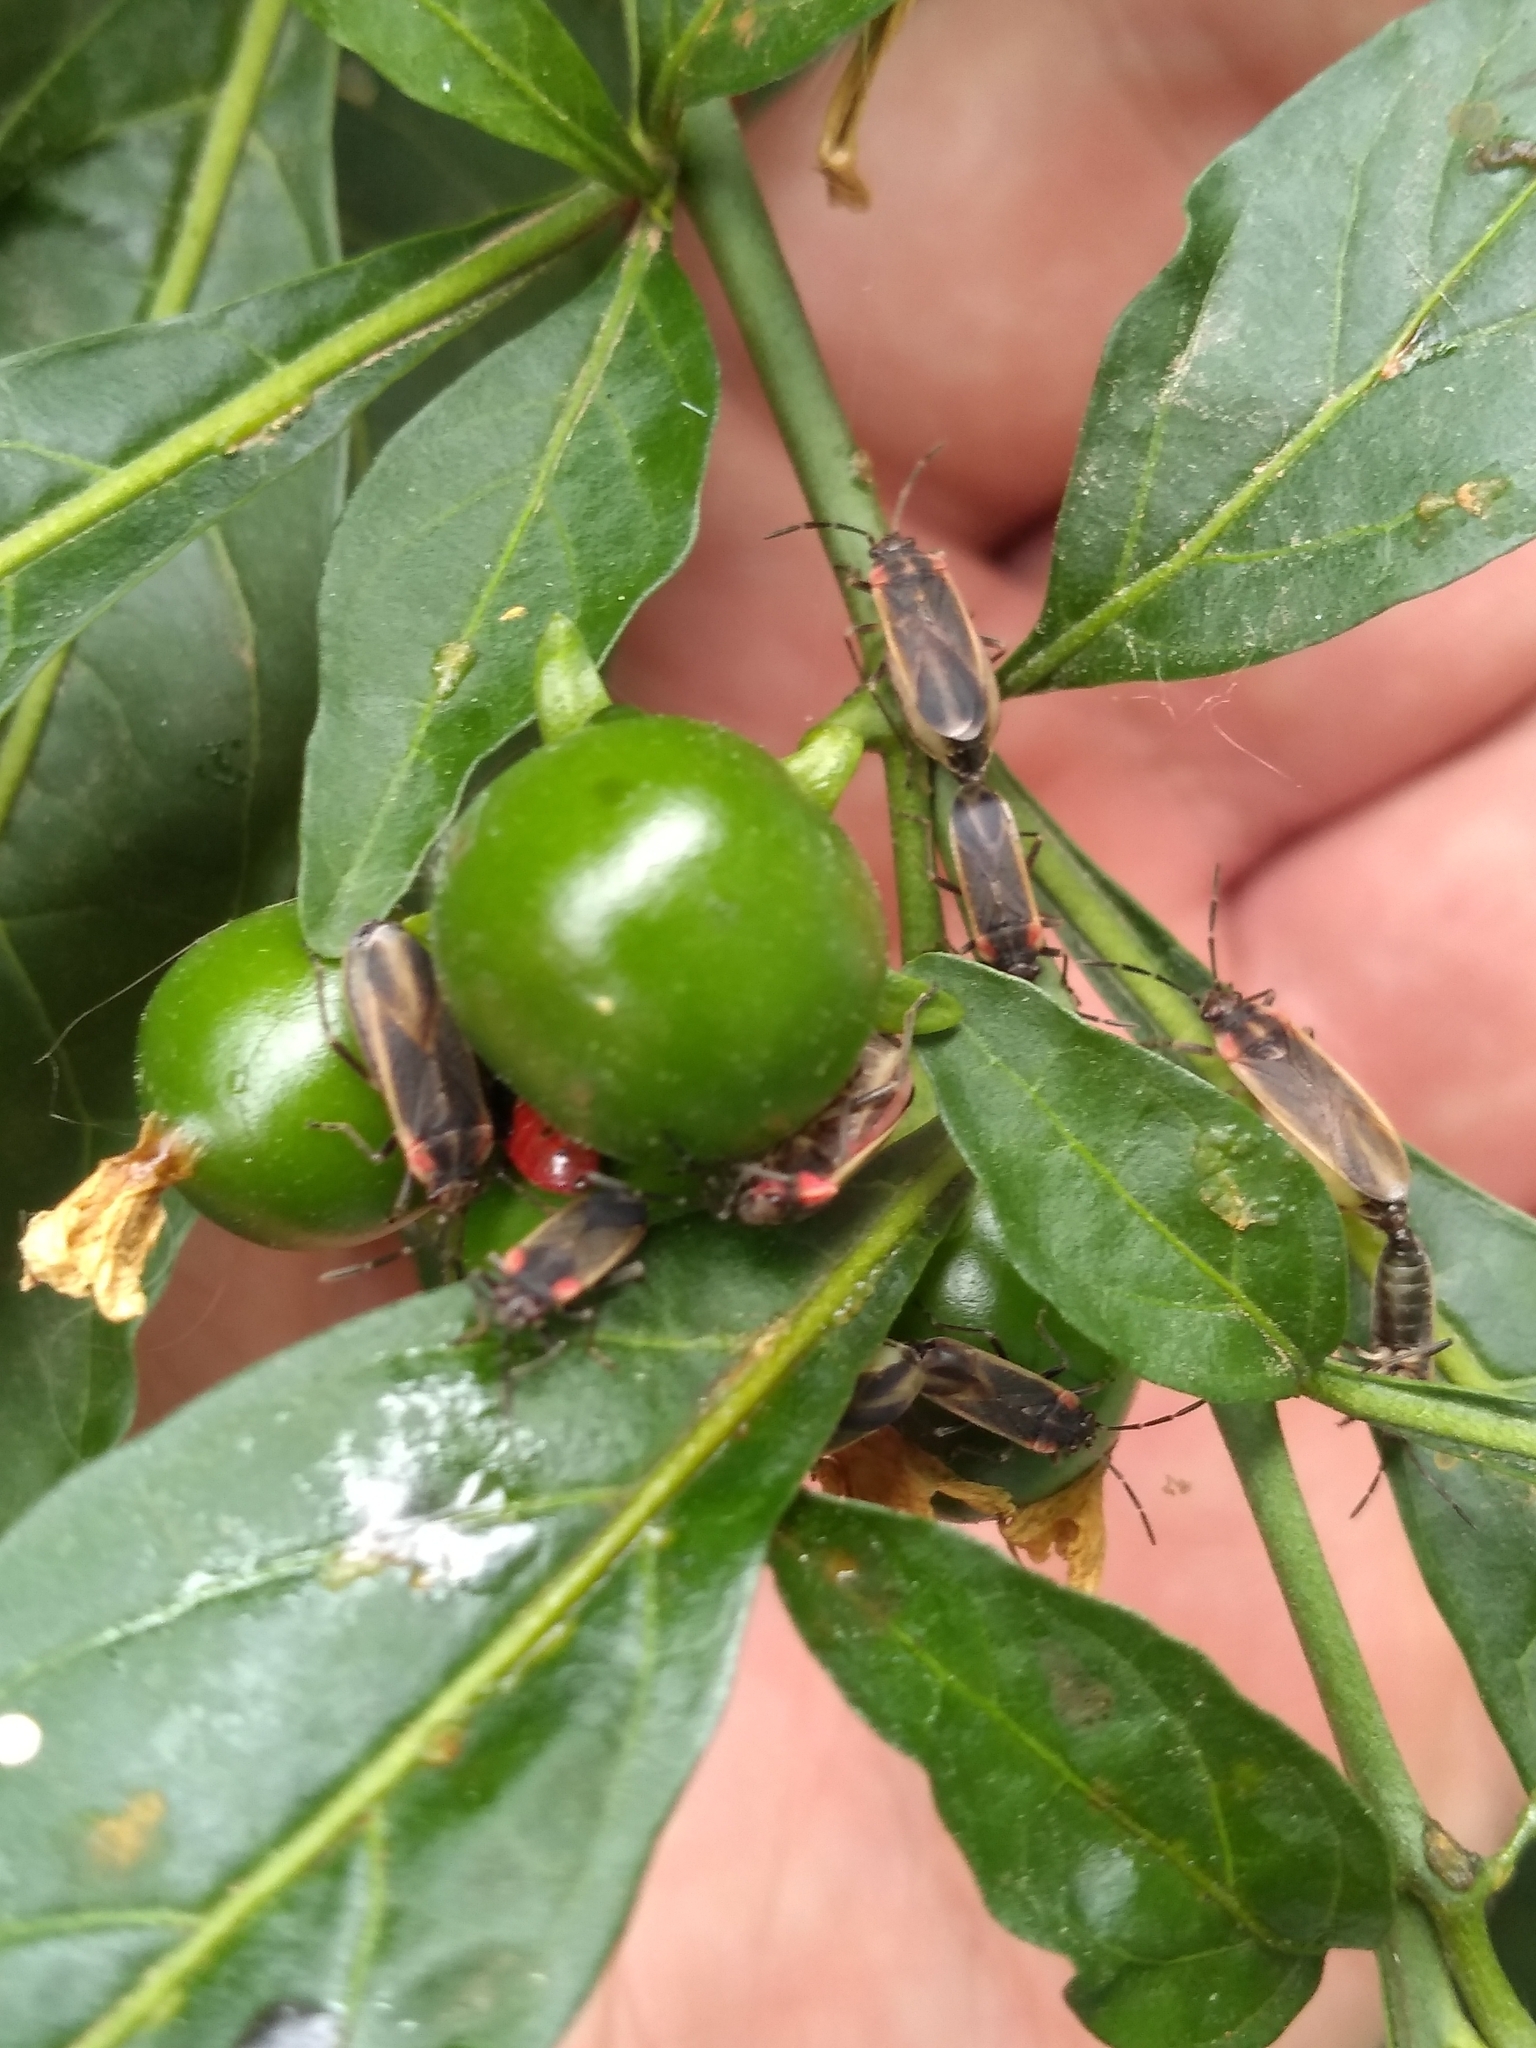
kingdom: Animalia
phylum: Arthropoda
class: Insecta
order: Hemiptera
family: Lygaeidae
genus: Acroleucus
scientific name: Acroleucus coxalis
